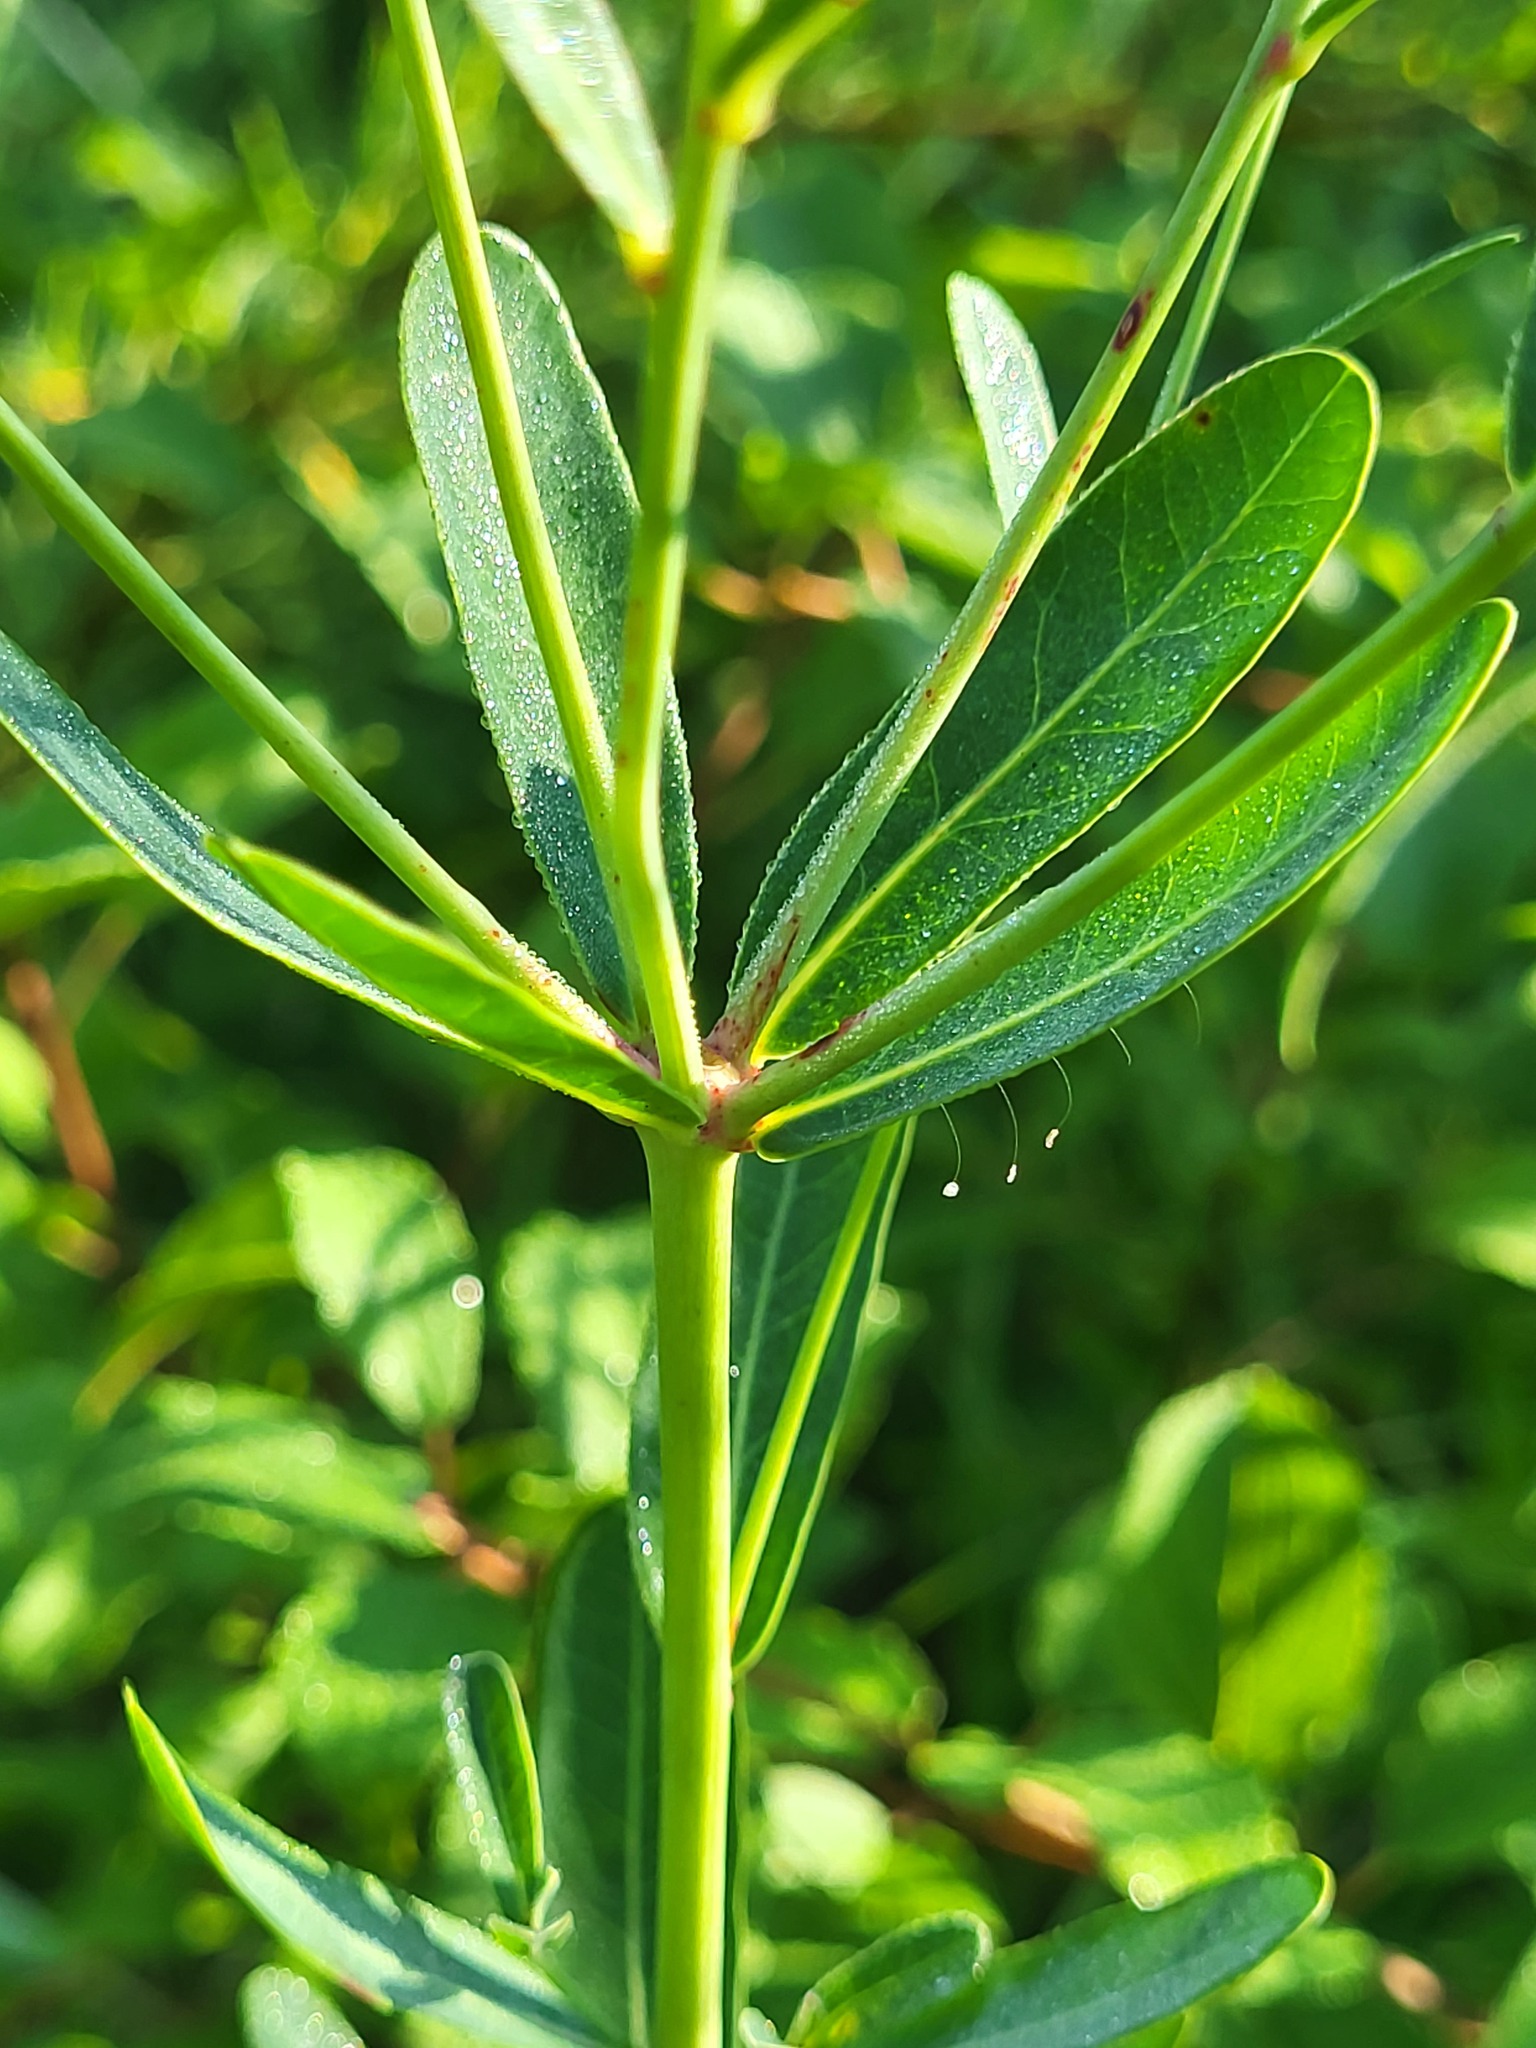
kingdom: Plantae
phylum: Tracheophyta
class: Magnoliopsida
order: Malpighiales
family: Euphorbiaceae
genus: Euphorbia
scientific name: Euphorbia corollata
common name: Flowering spurge
